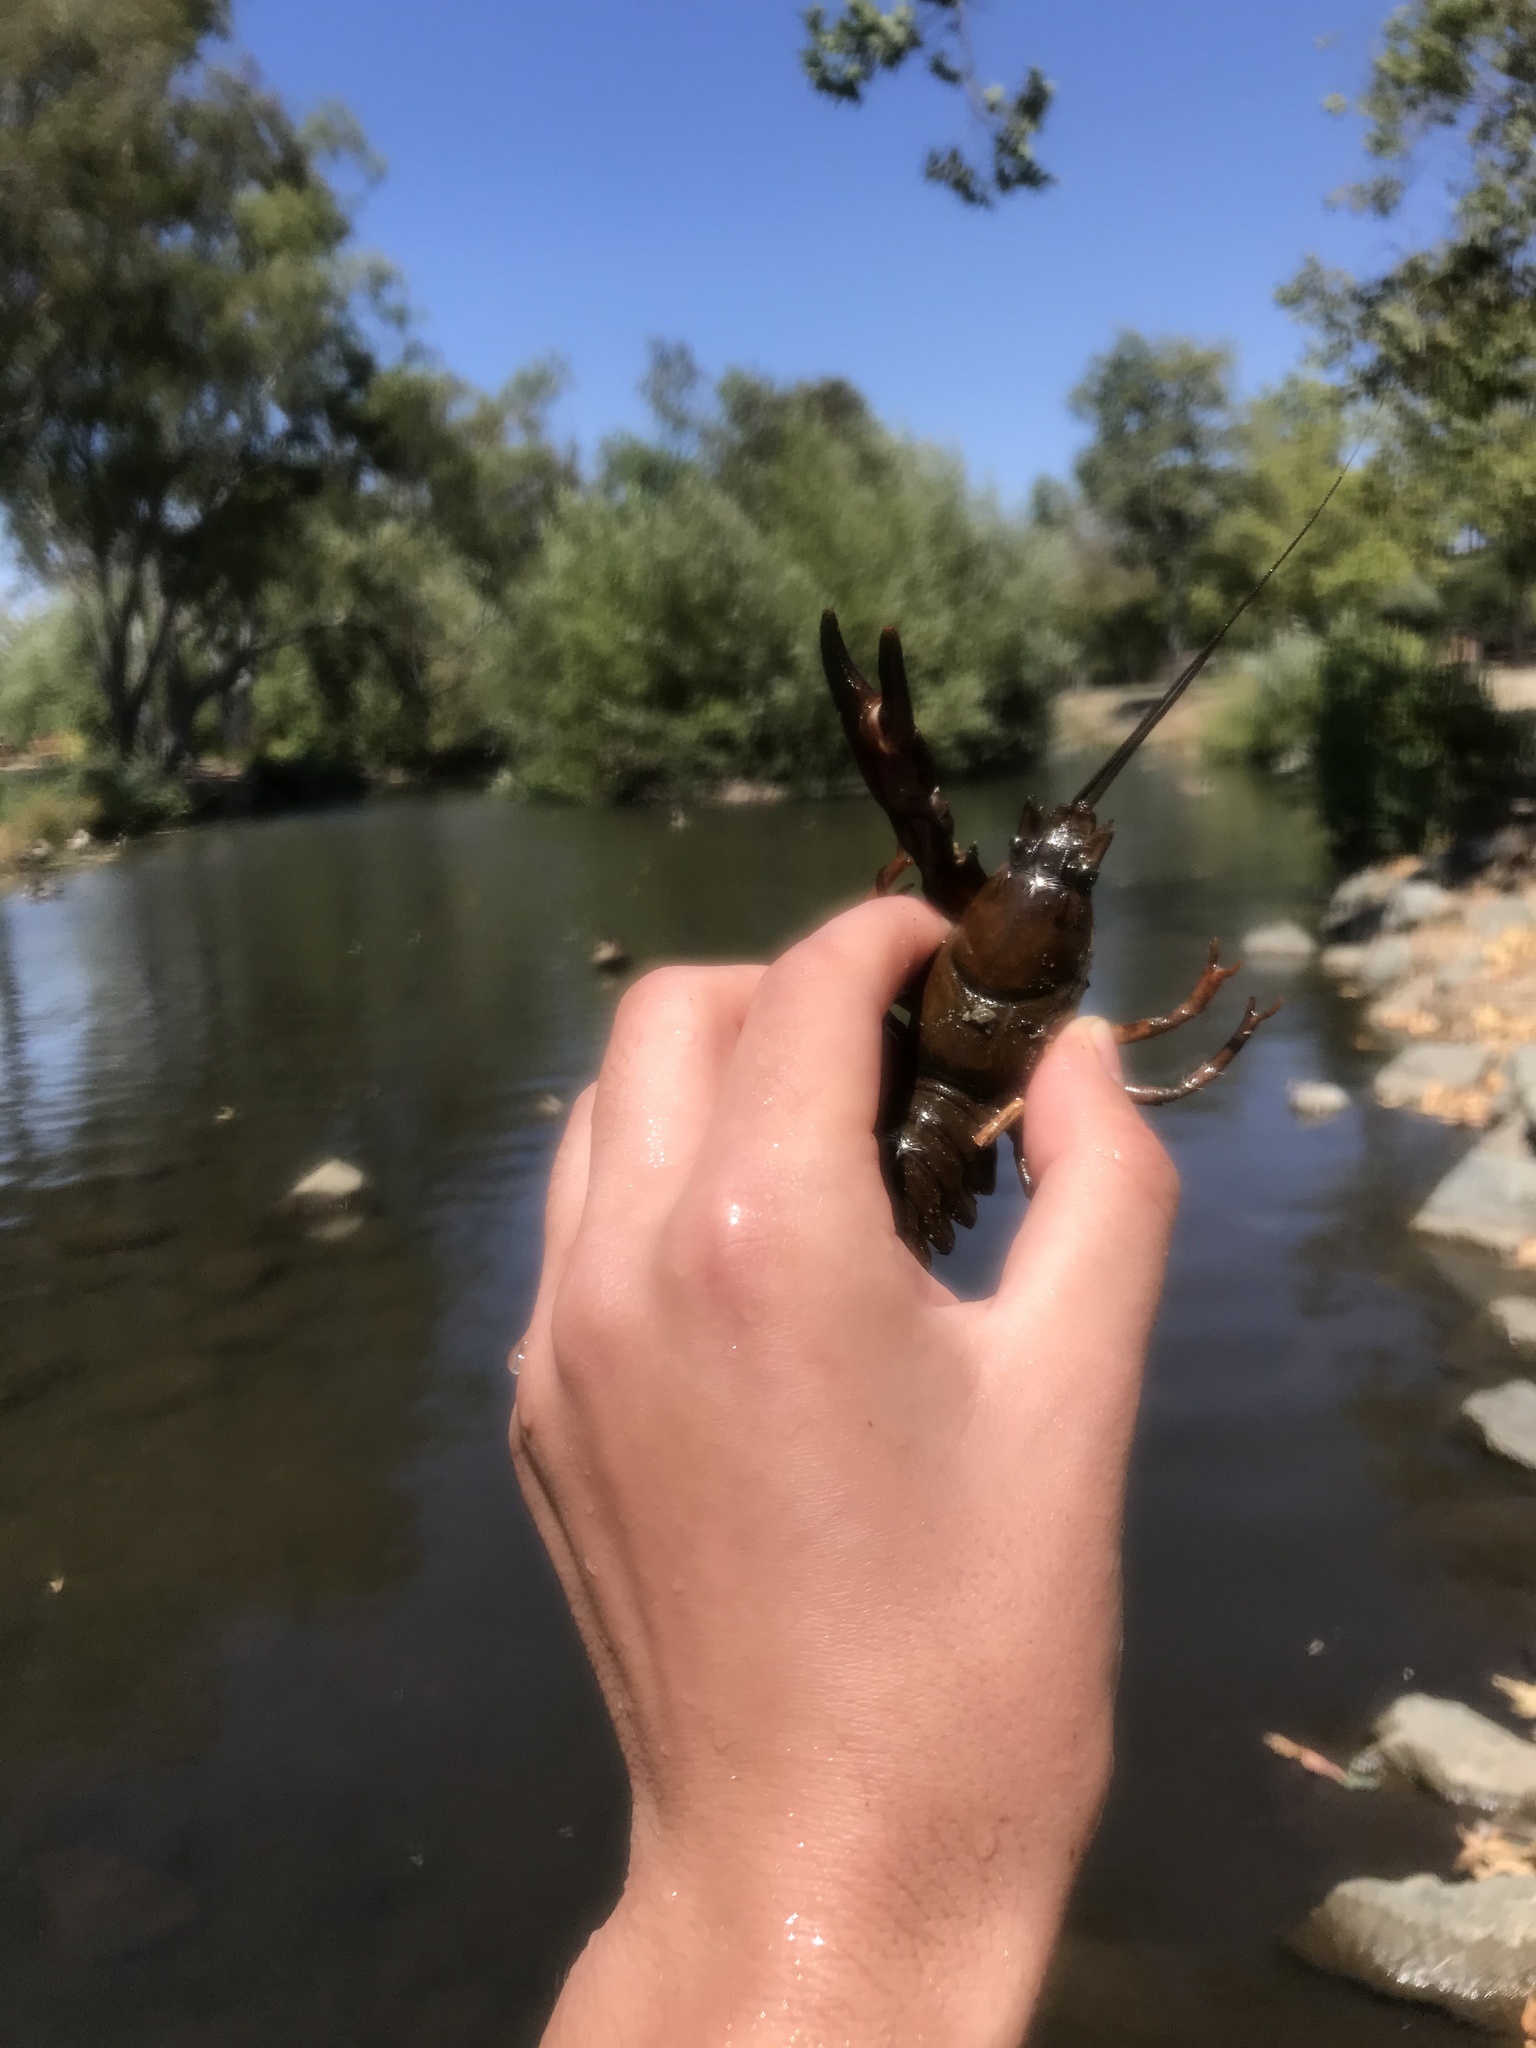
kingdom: Animalia
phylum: Arthropoda
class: Malacostraca
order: Decapoda
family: Astacidae
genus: Pacifastacus
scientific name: Pacifastacus leniusculus
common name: Signal crayfish
